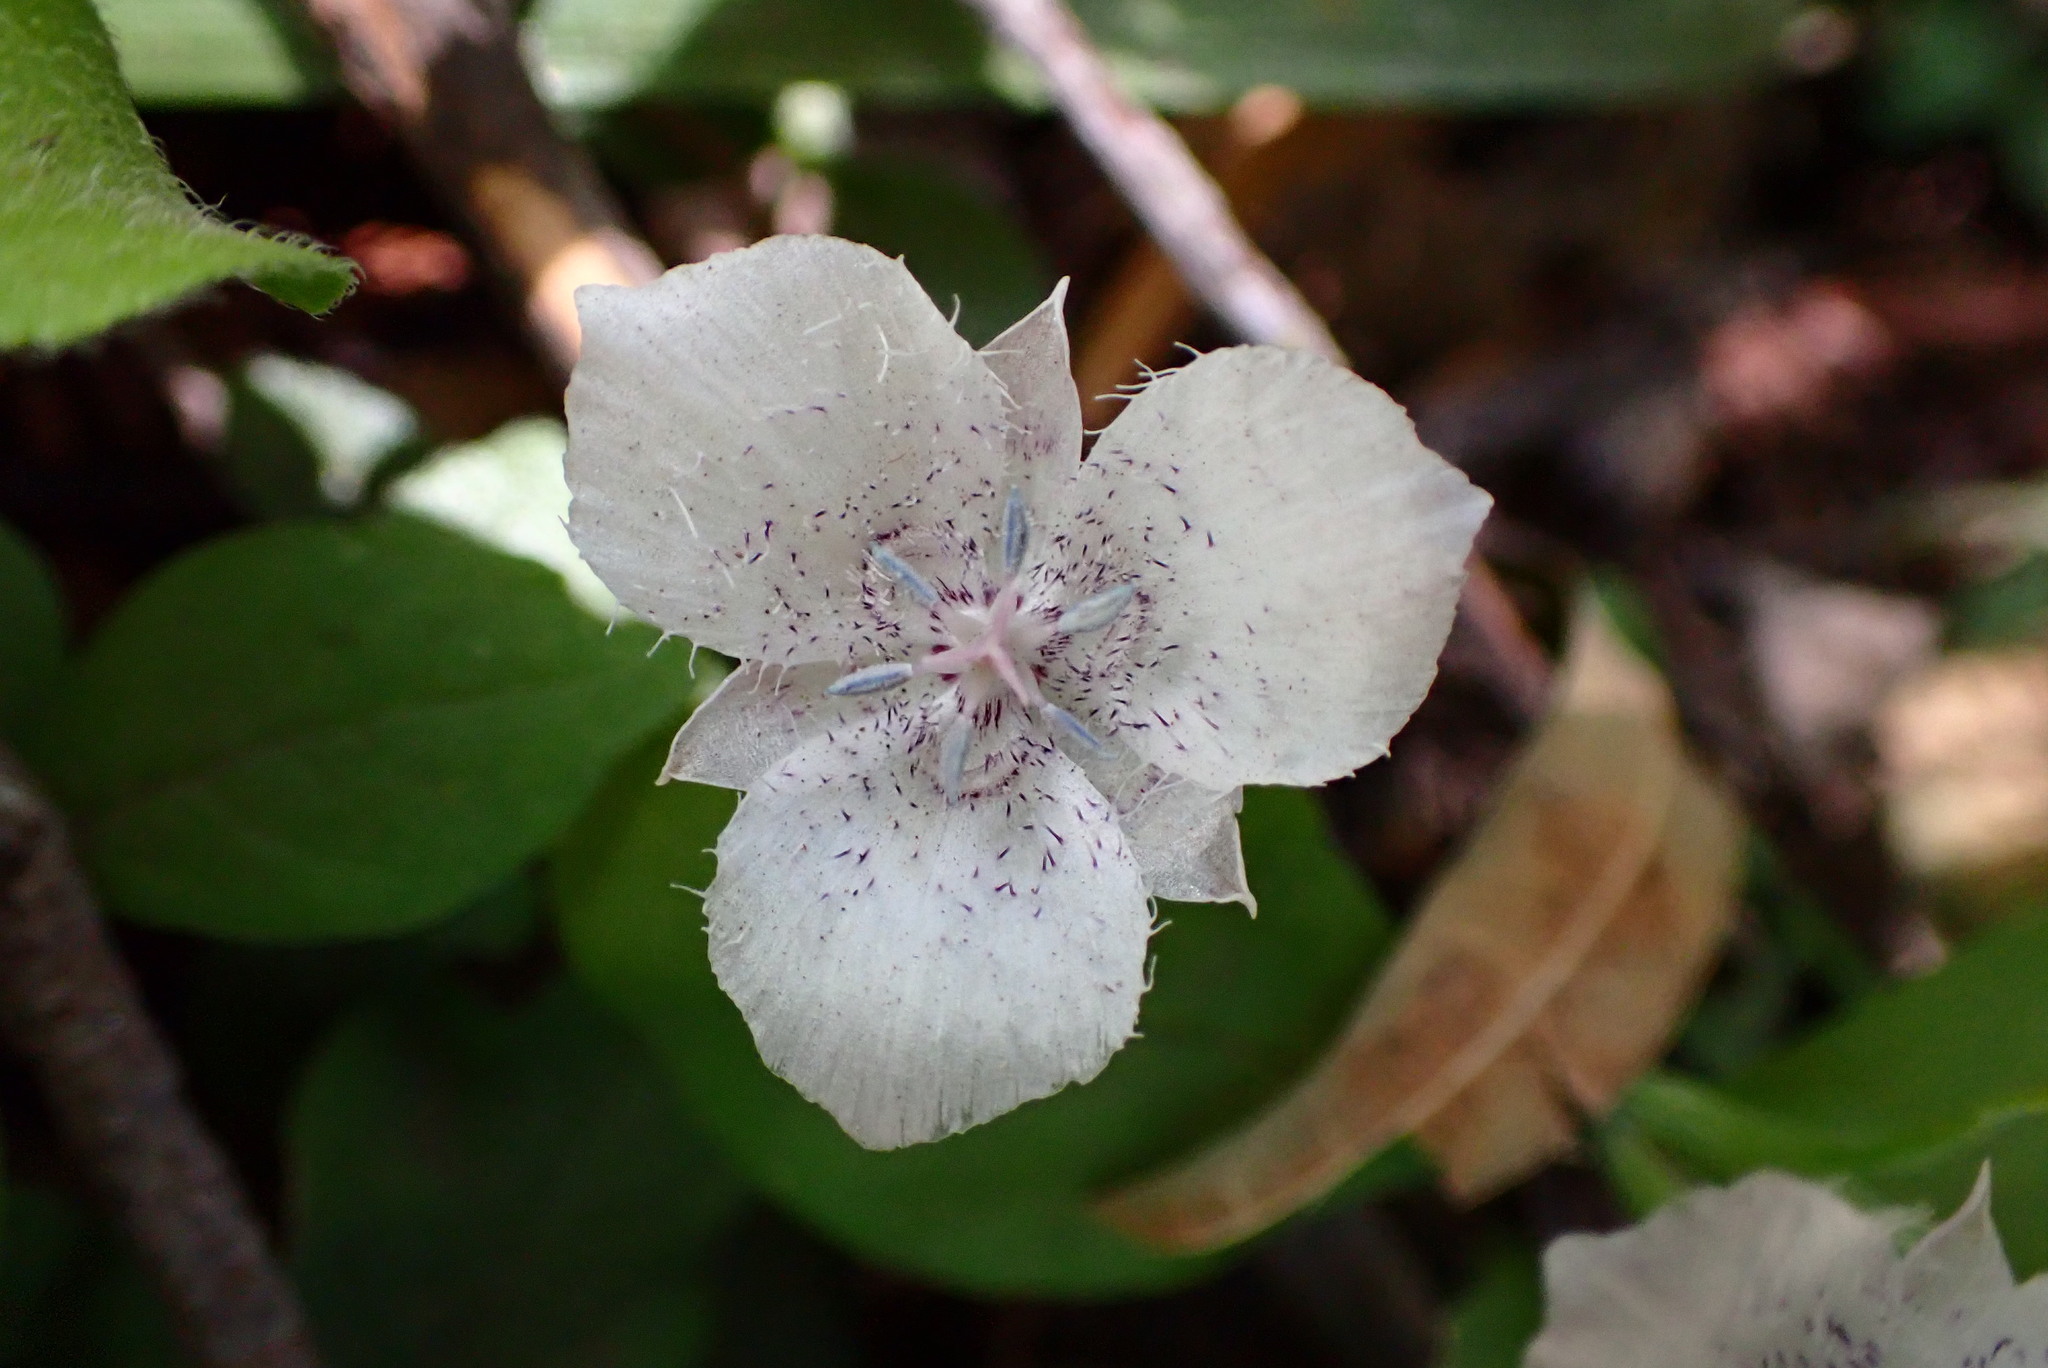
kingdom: Plantae
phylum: Tracheophyta
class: Liliopsida
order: Liliales
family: Liliaceae
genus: Calochortus
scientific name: Calochortus tolmiei
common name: Pussy-ears
